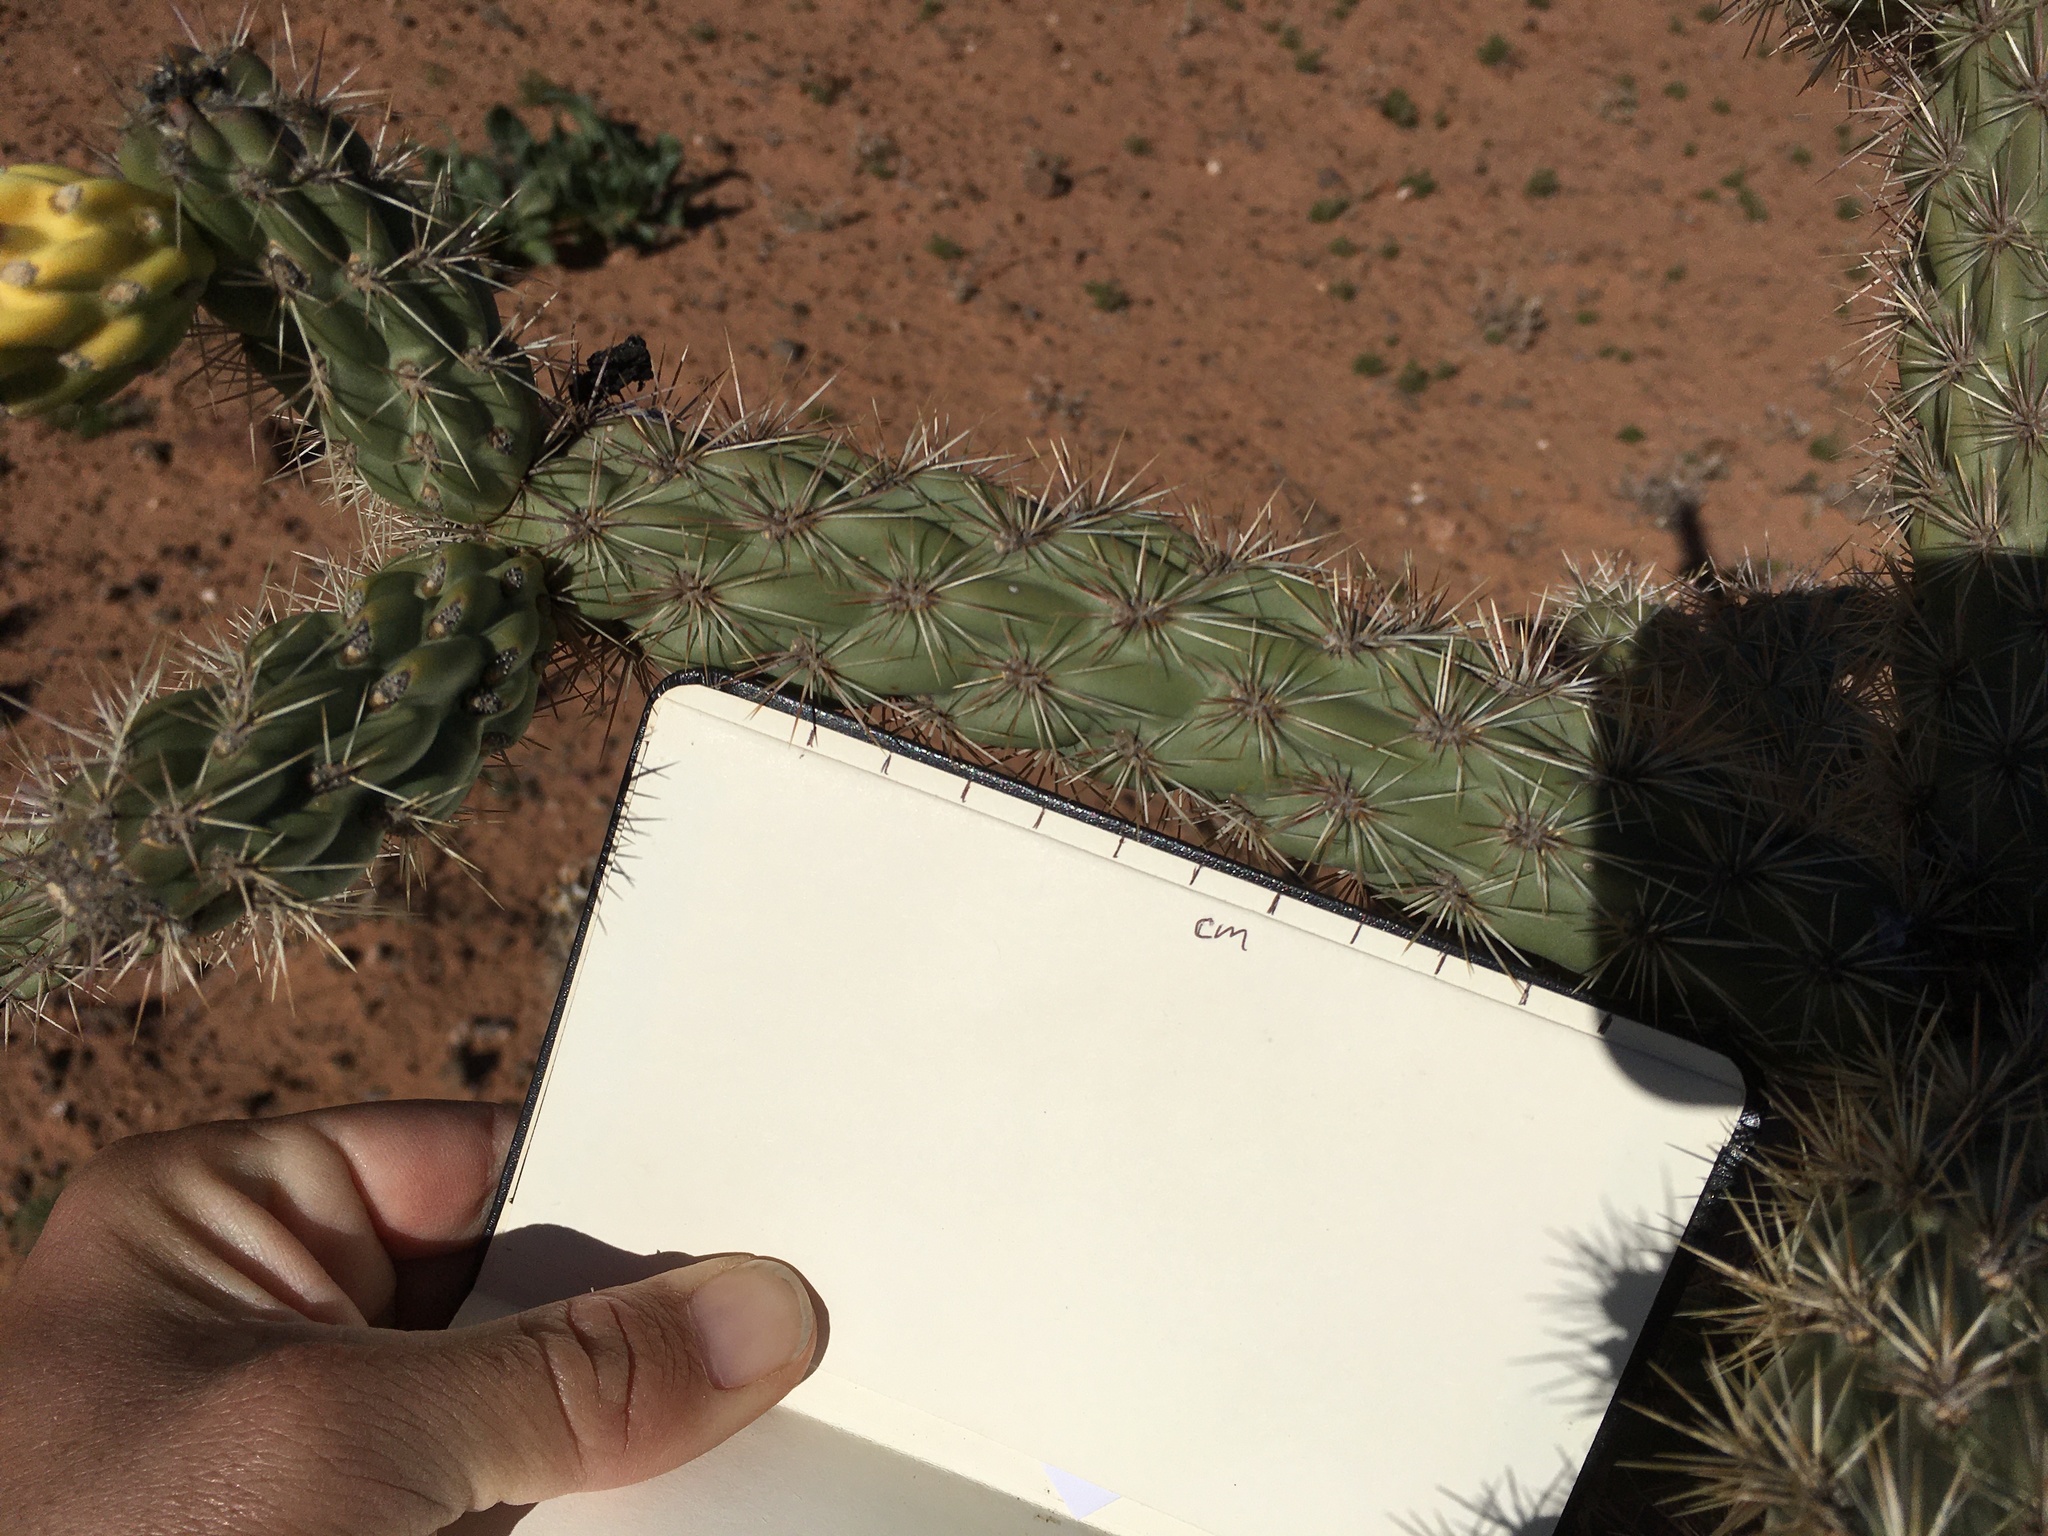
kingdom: Plantae
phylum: Tracheophyta
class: Magnoliopsida
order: Caryophyllales
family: Cactaceae
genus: Cylindropuntia
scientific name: Cylindropuntia imbricata
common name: Candelabrum cactus
